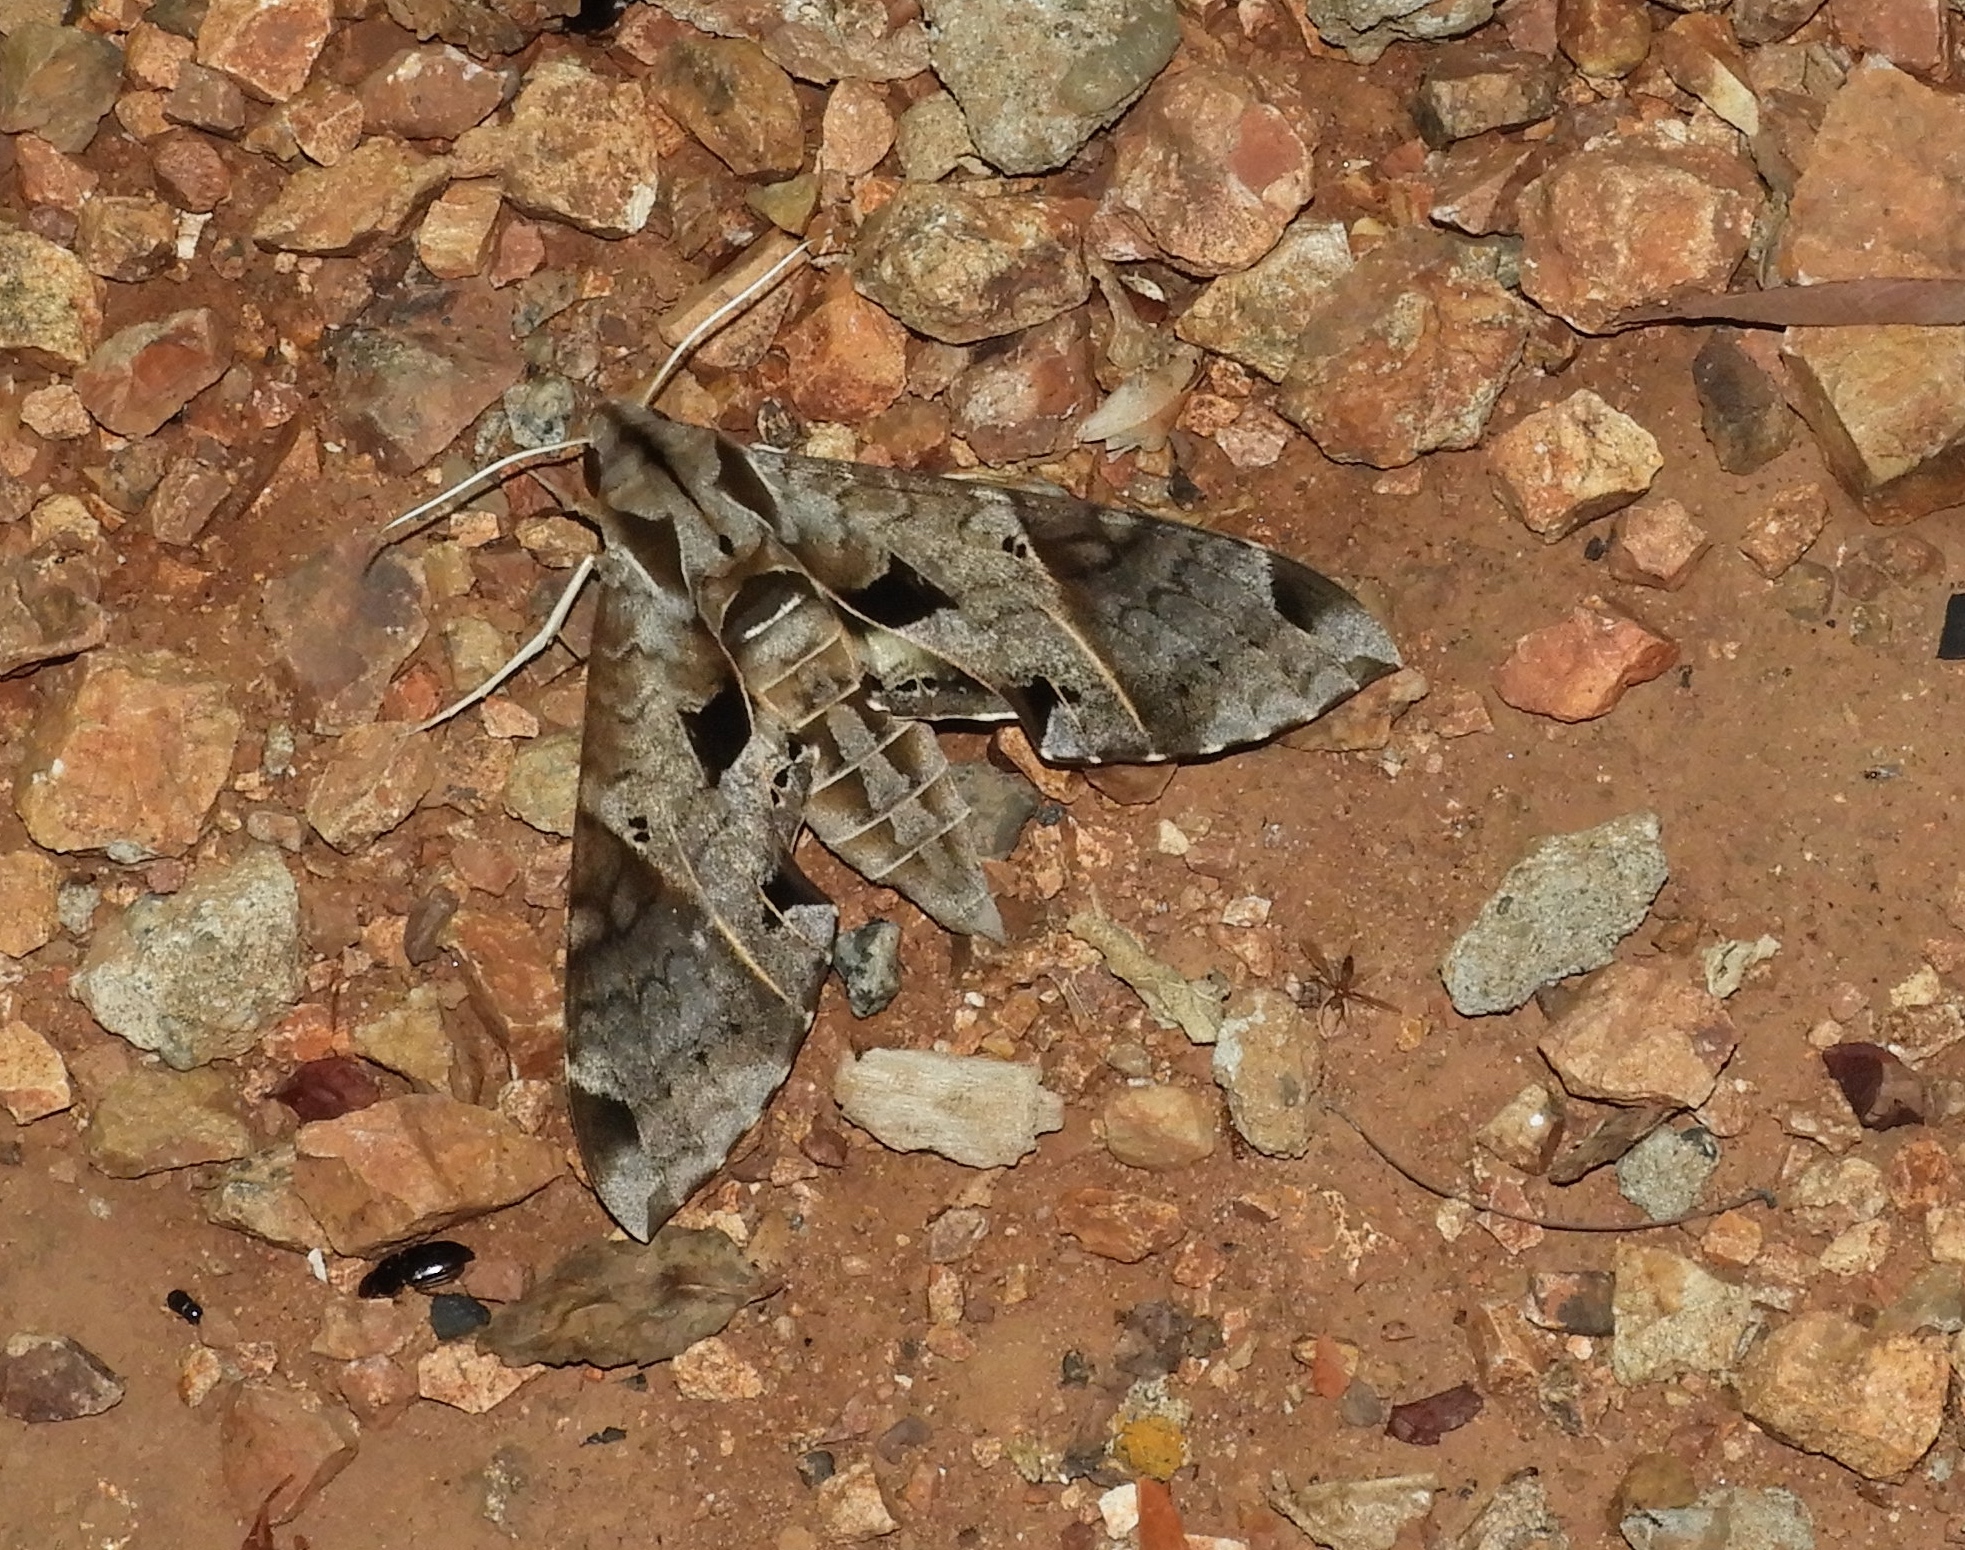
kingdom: Animalia
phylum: Arthropoda
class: Insecta
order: Lepidoptera
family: Sphingidae
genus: Eumorpha
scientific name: Eumorpha satellitia
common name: Satellite sphinx
